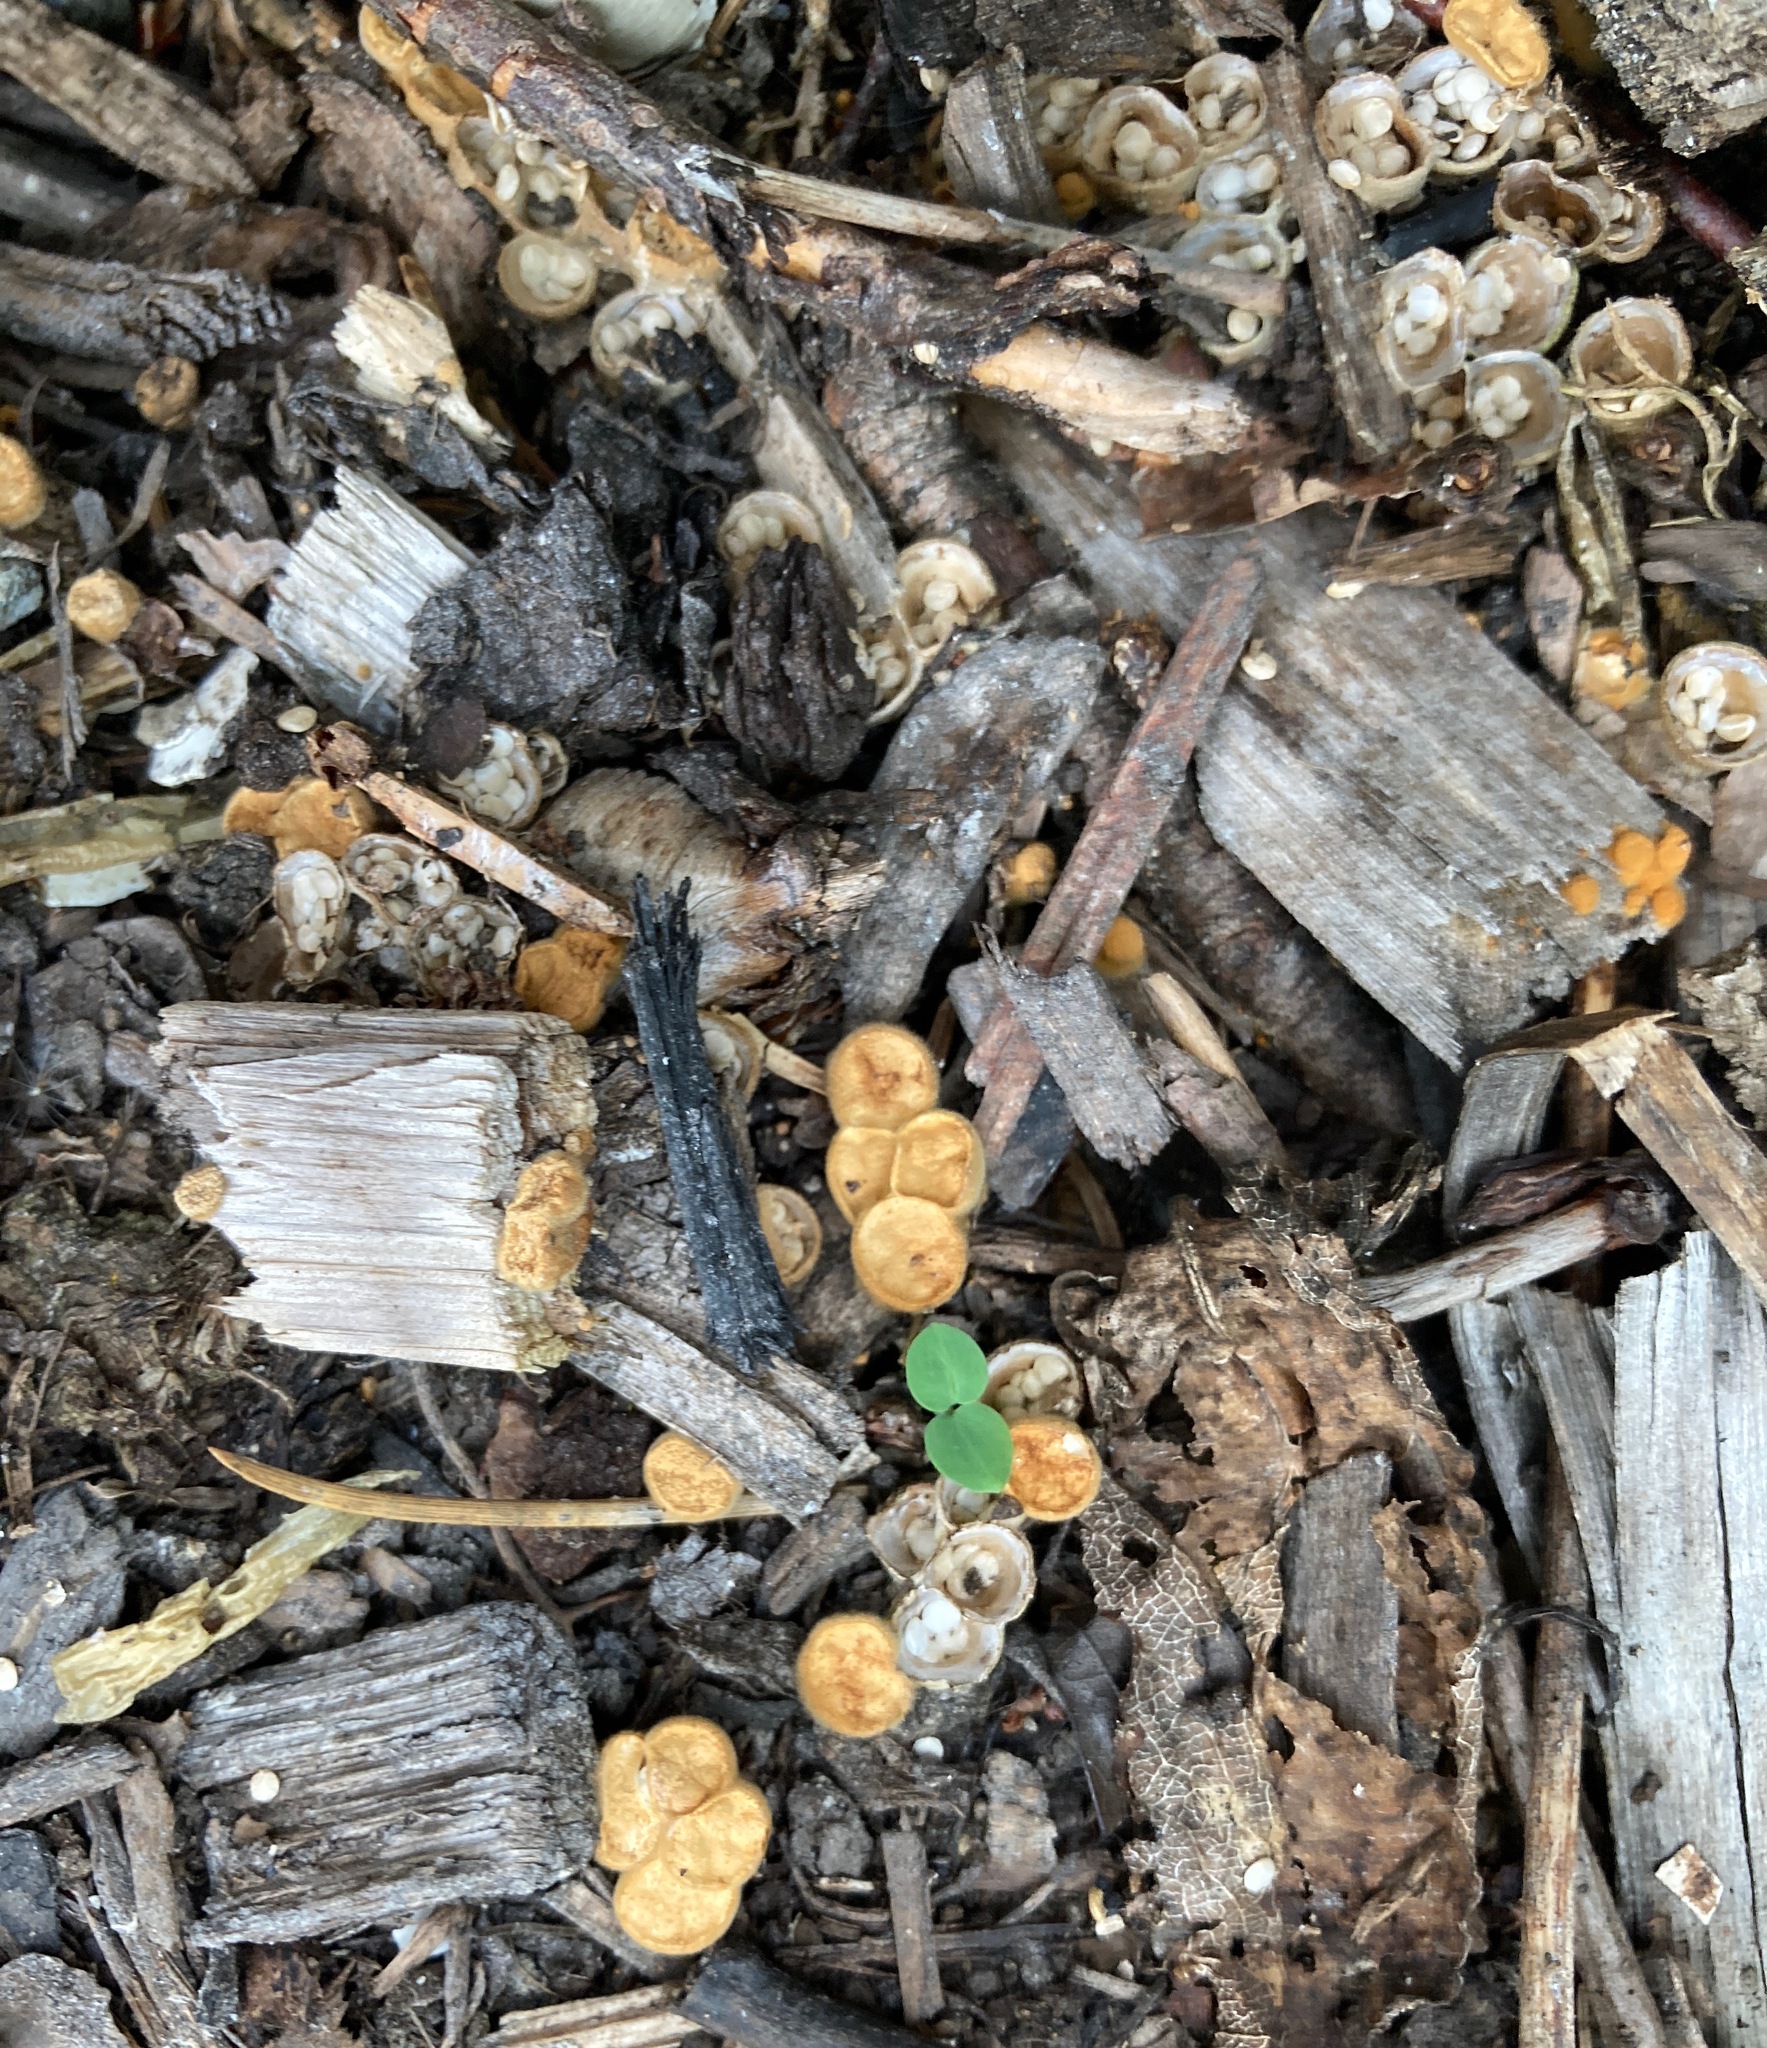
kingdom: Fungi
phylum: Basidiomycota
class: Agaricomycetes
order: Agaricales
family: Nidulariaceae
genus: Crucibulum
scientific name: Crucibulum laeve
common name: Common bird's nest
